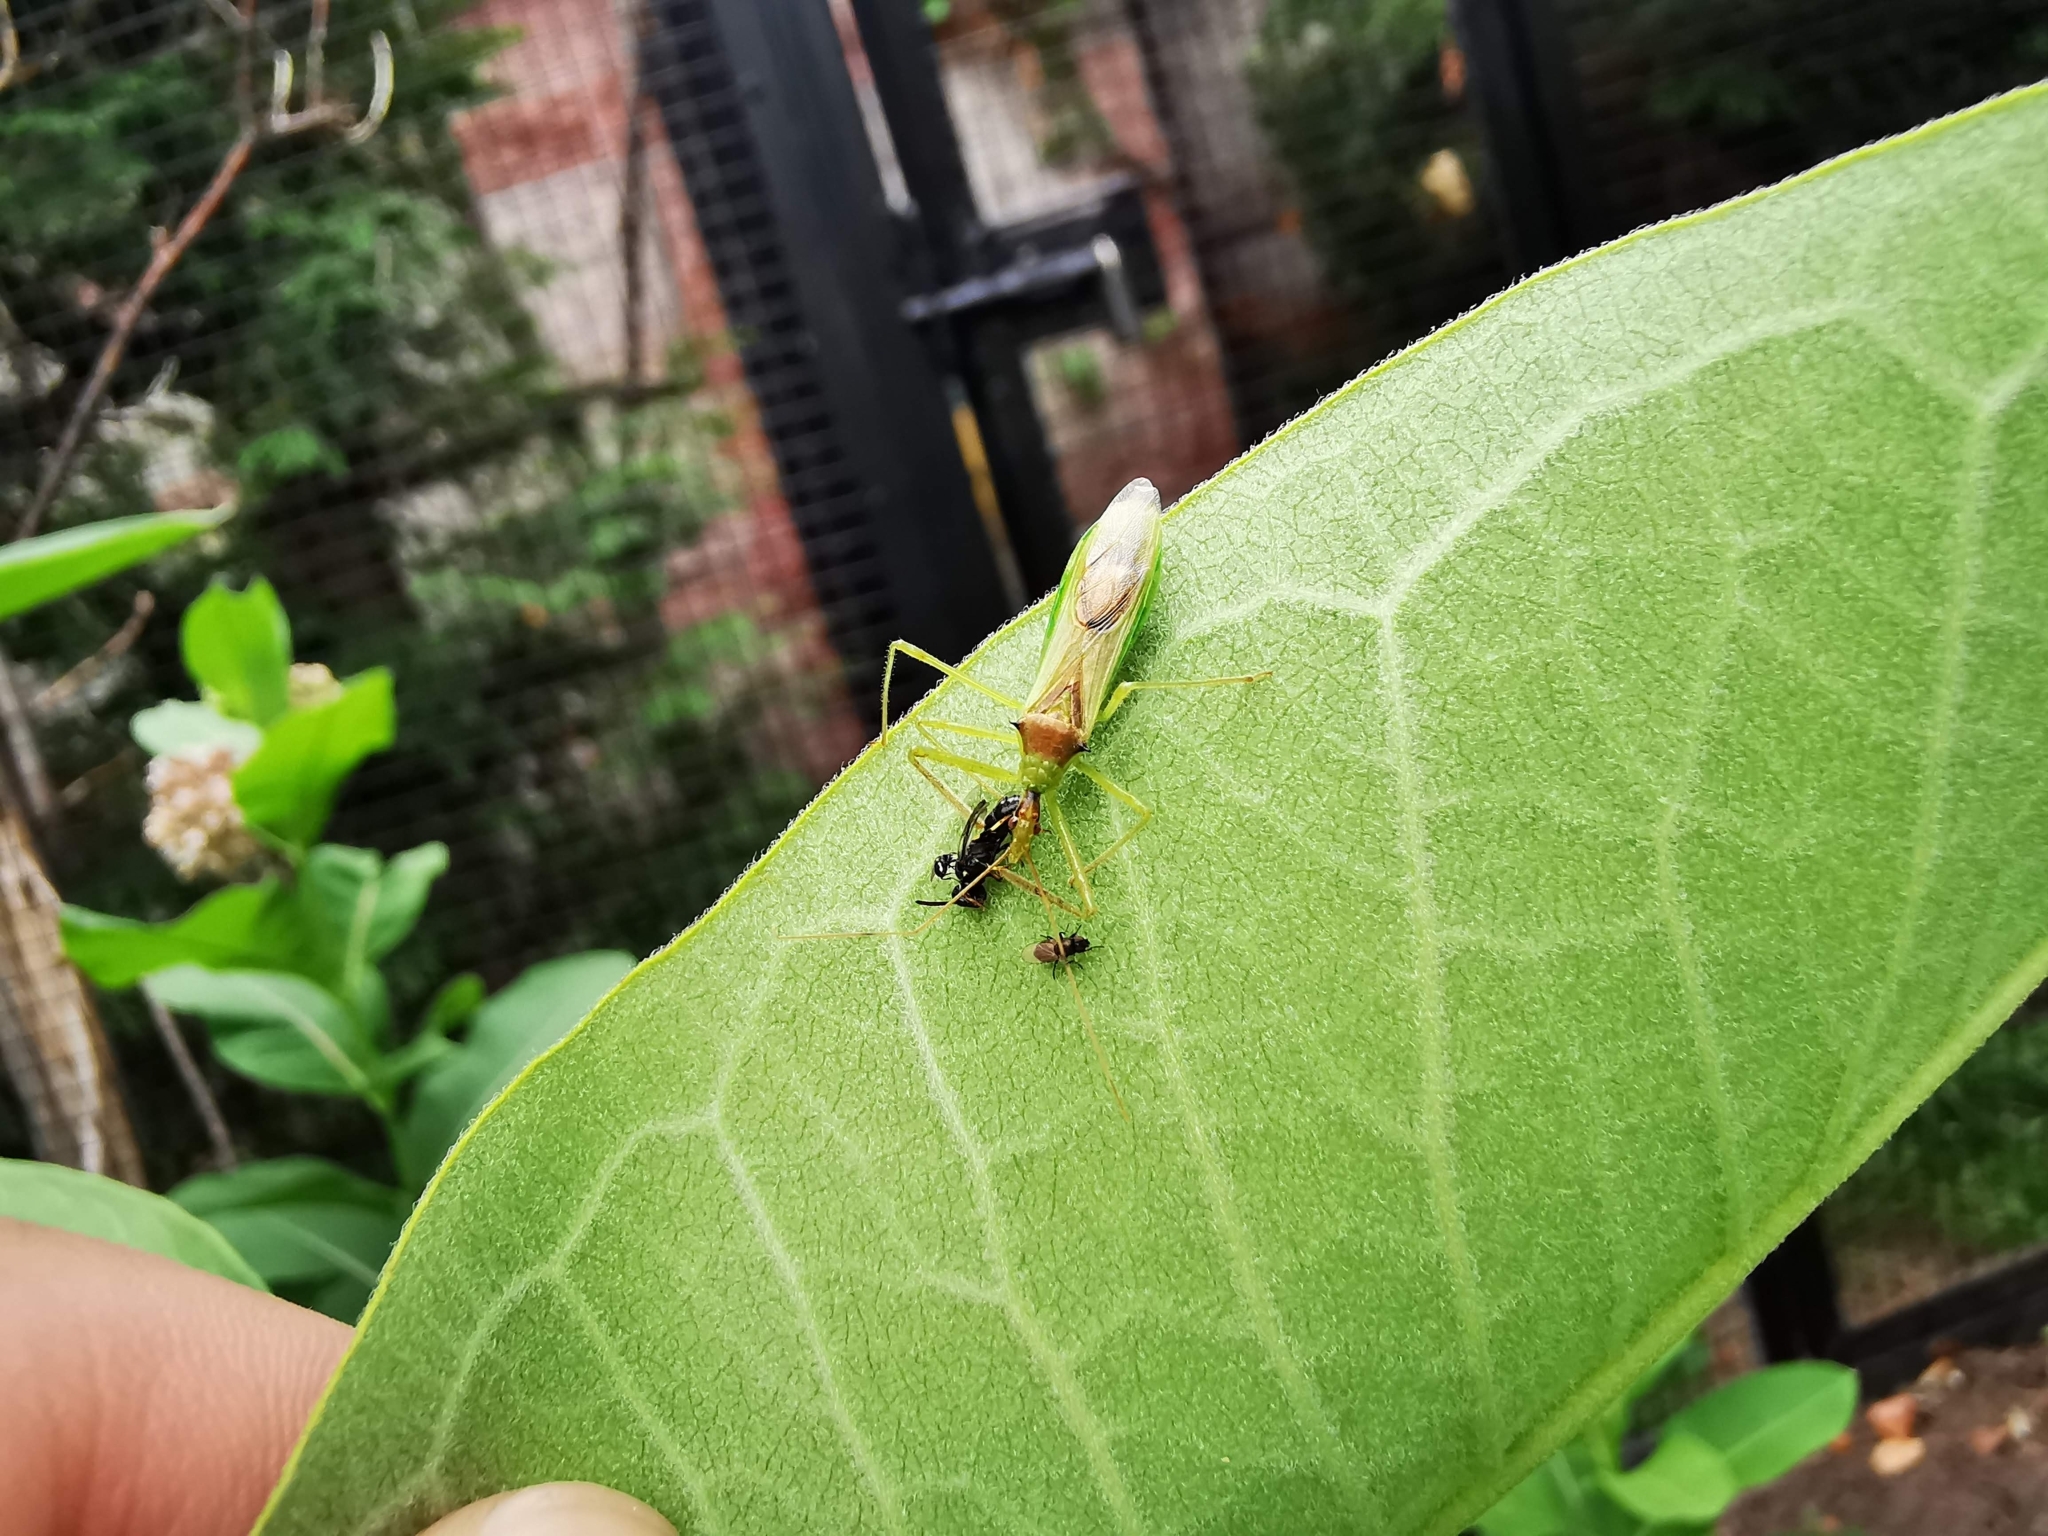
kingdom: Animalia
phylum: Arthropoda
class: Insecta
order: Hemiptera
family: Reduviidae
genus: Zelus
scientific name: Zelus luridus
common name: Pale green assassin bug
